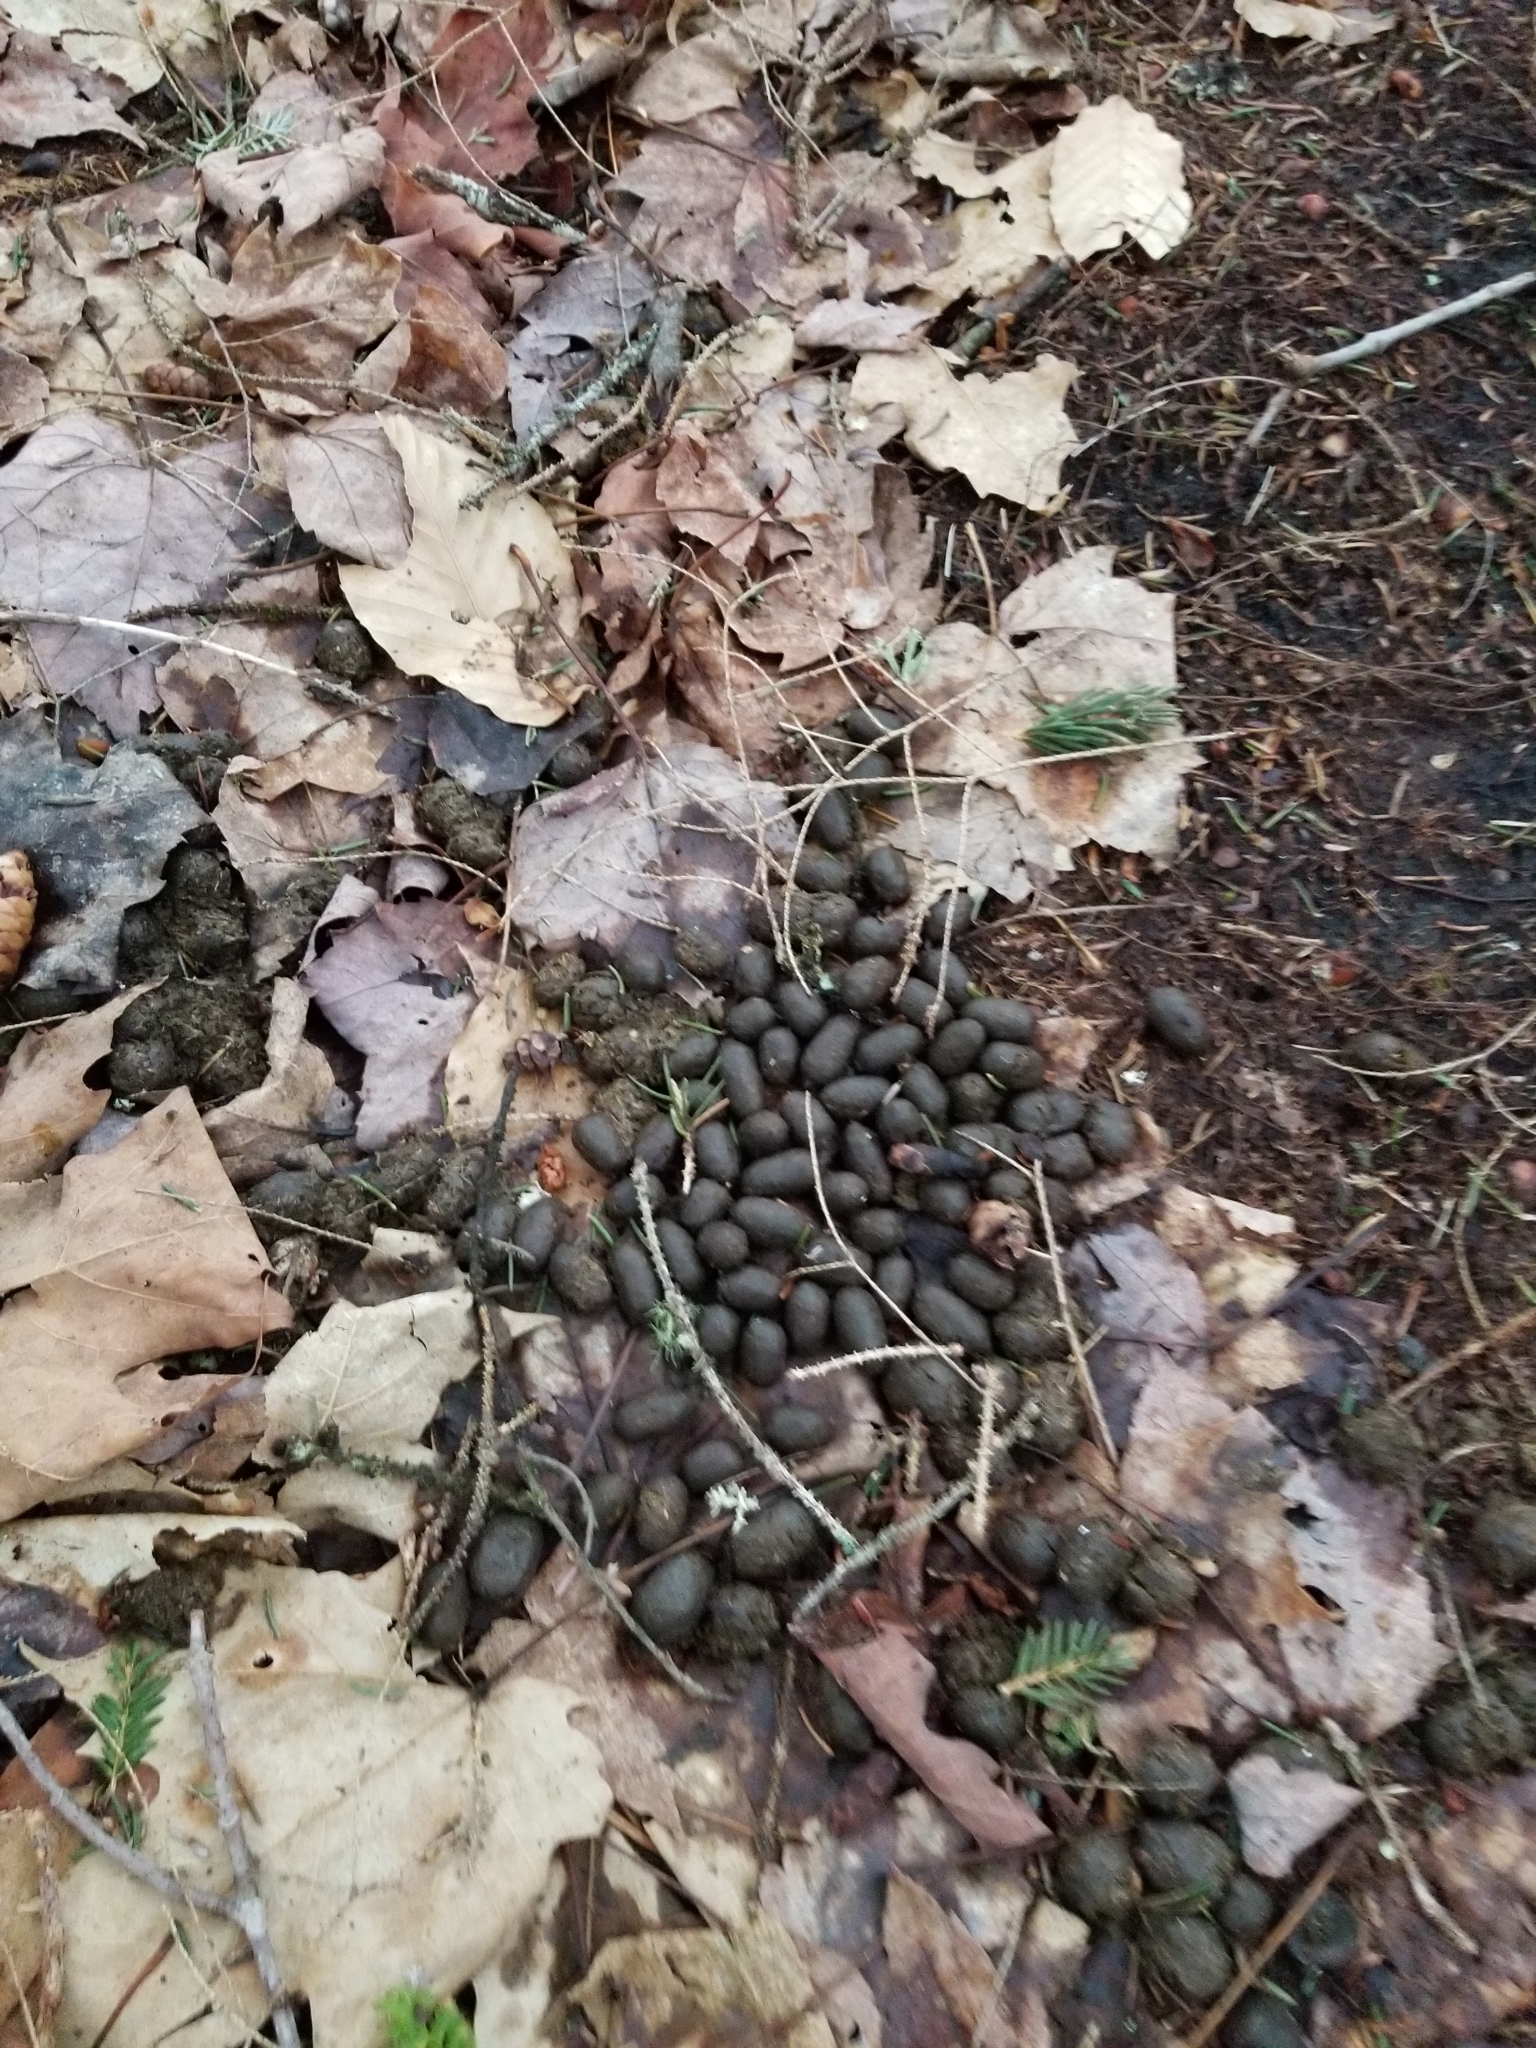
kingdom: Animalia
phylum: Chordata
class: Mammalia
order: Artiodactyla
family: Cervidae
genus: Odocoileus
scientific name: Odocoileus virginianus
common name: White-tailed deer
